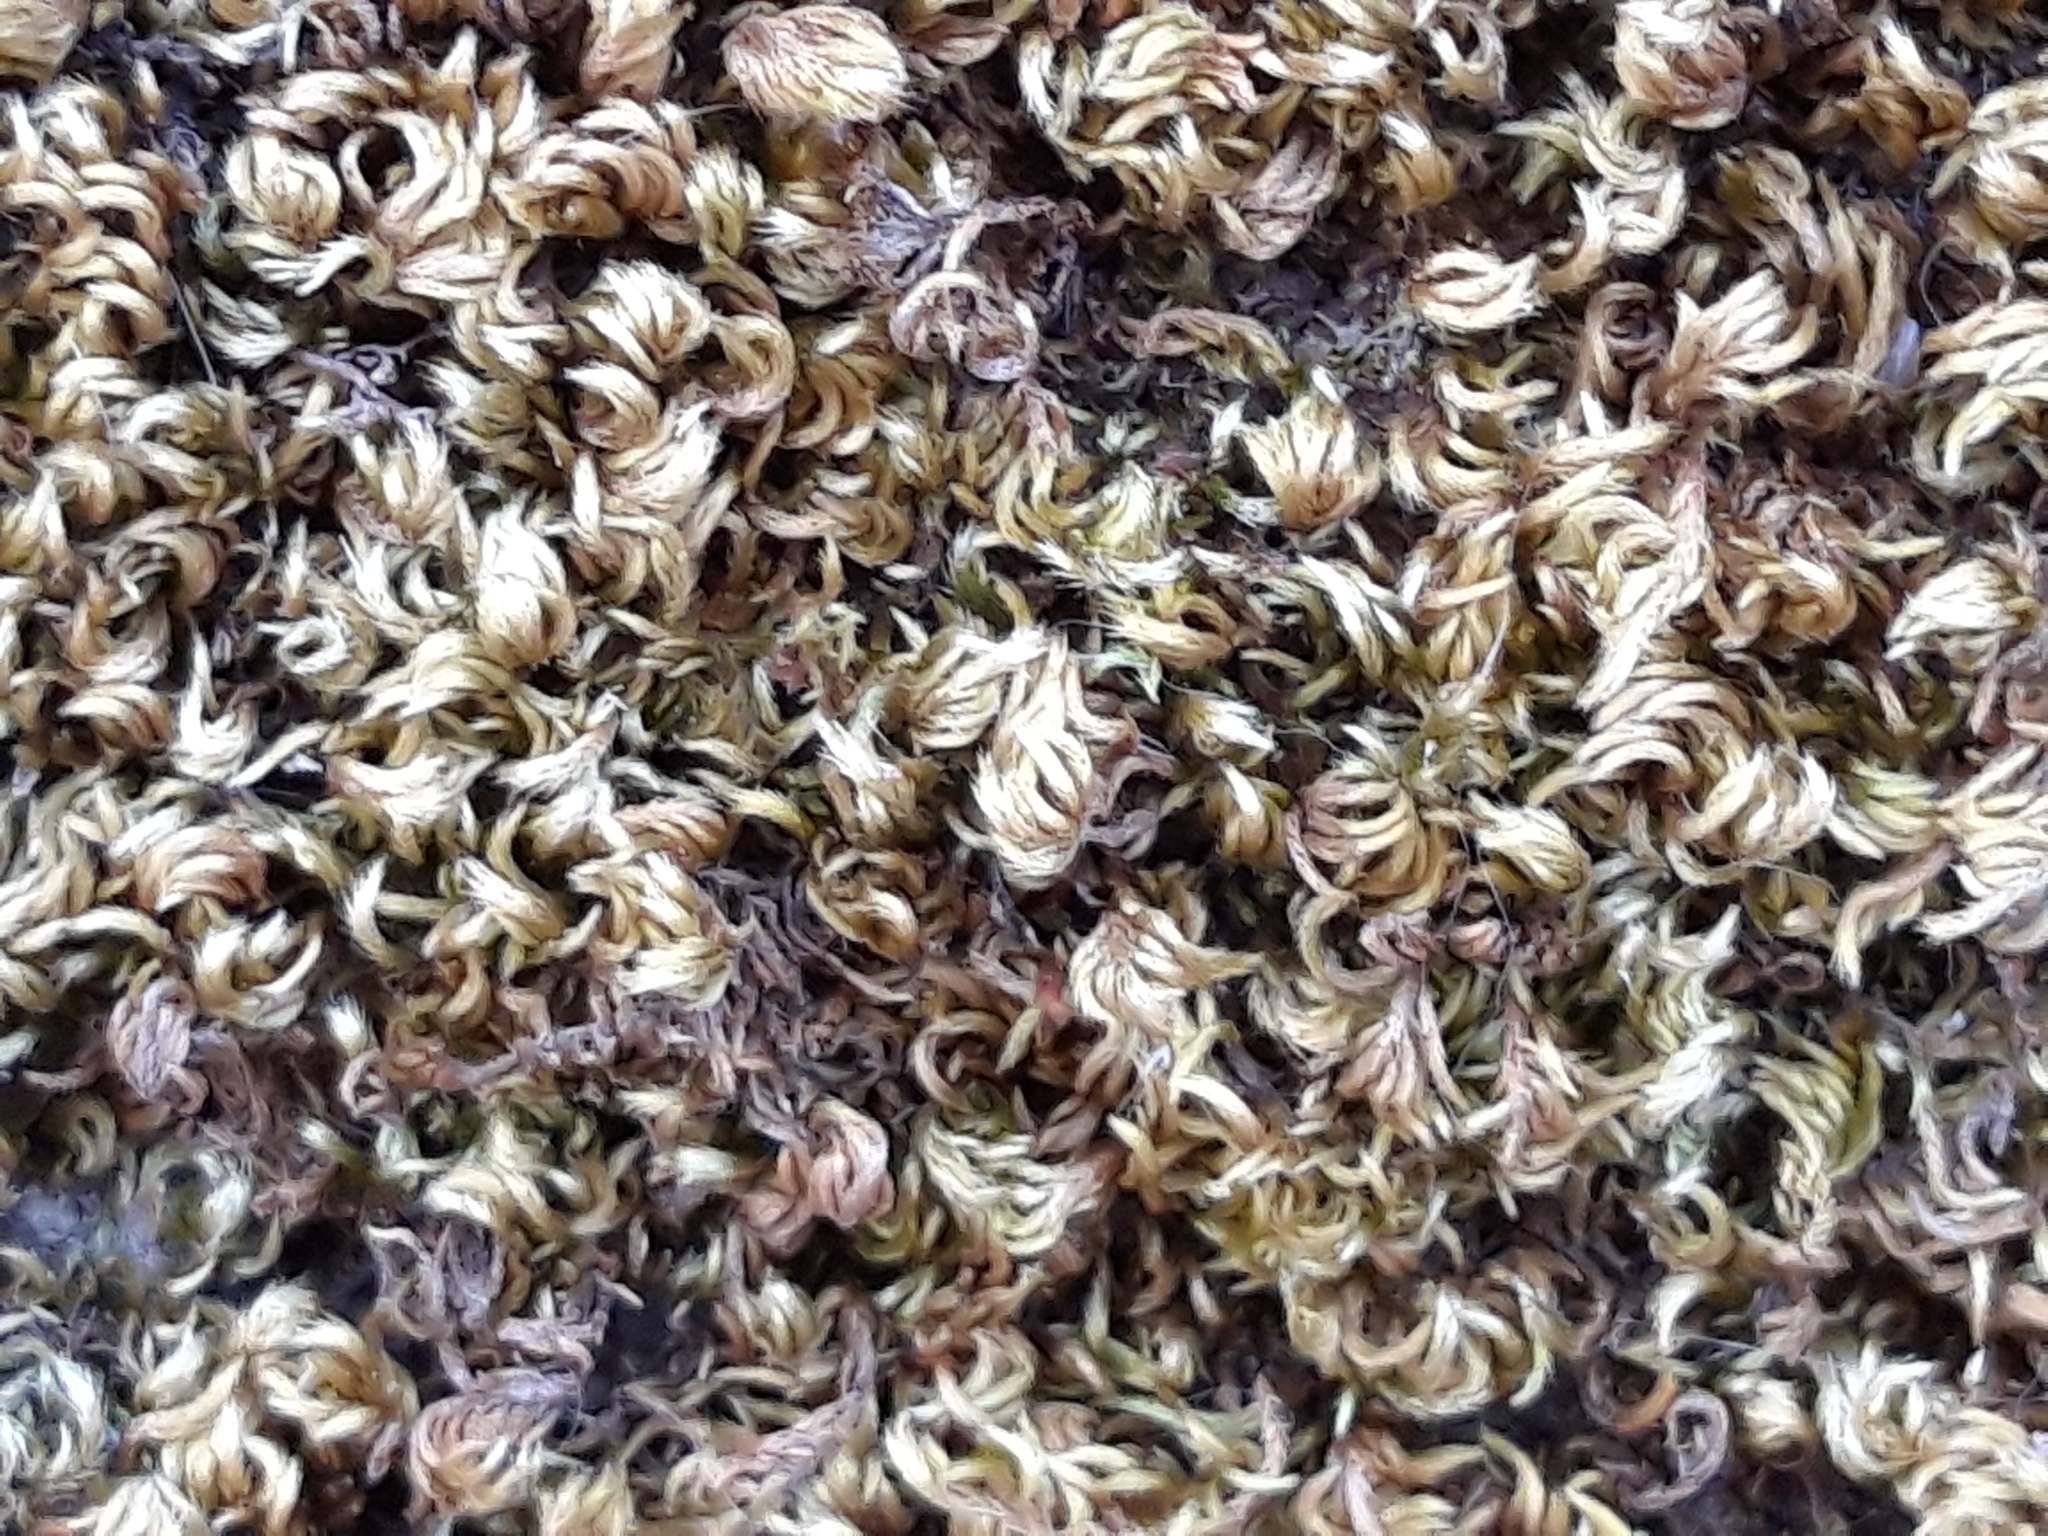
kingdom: Plantae
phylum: Bryophyta
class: Bryopsida
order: Hypnales
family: Brachytheciaceae
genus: Homalothecium
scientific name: Homalothecium sericeum
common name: Silky wall feather-moss
